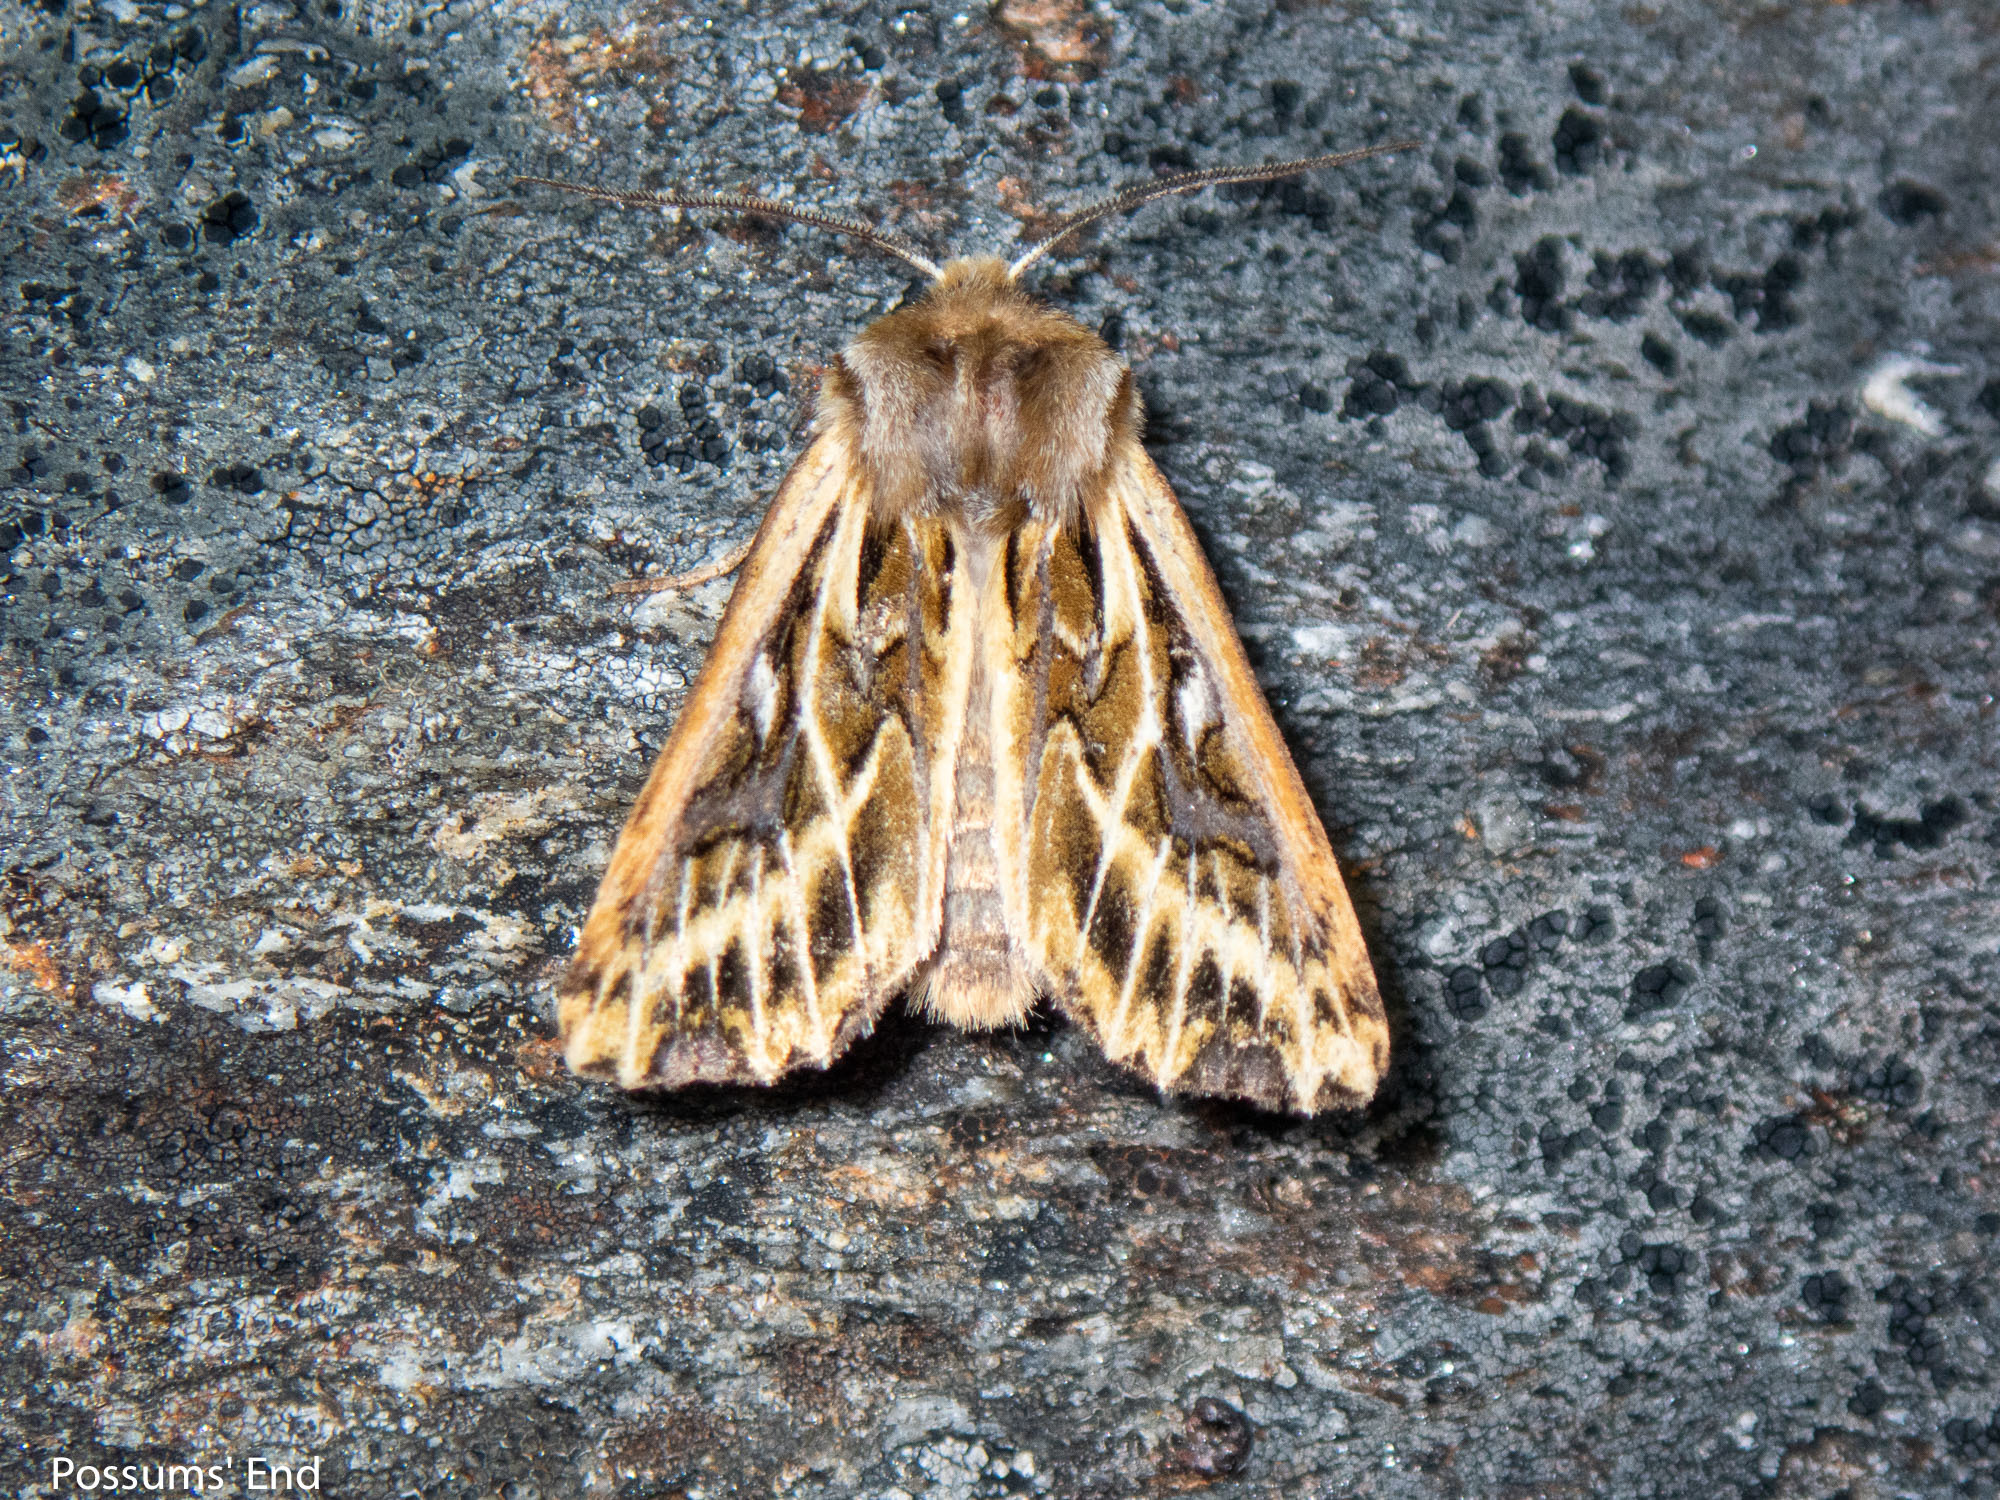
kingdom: Animalia
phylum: Arthropoda
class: Insecta
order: Lepidoptera
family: Noctuidae
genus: Ichneutica
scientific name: Ichneutica
